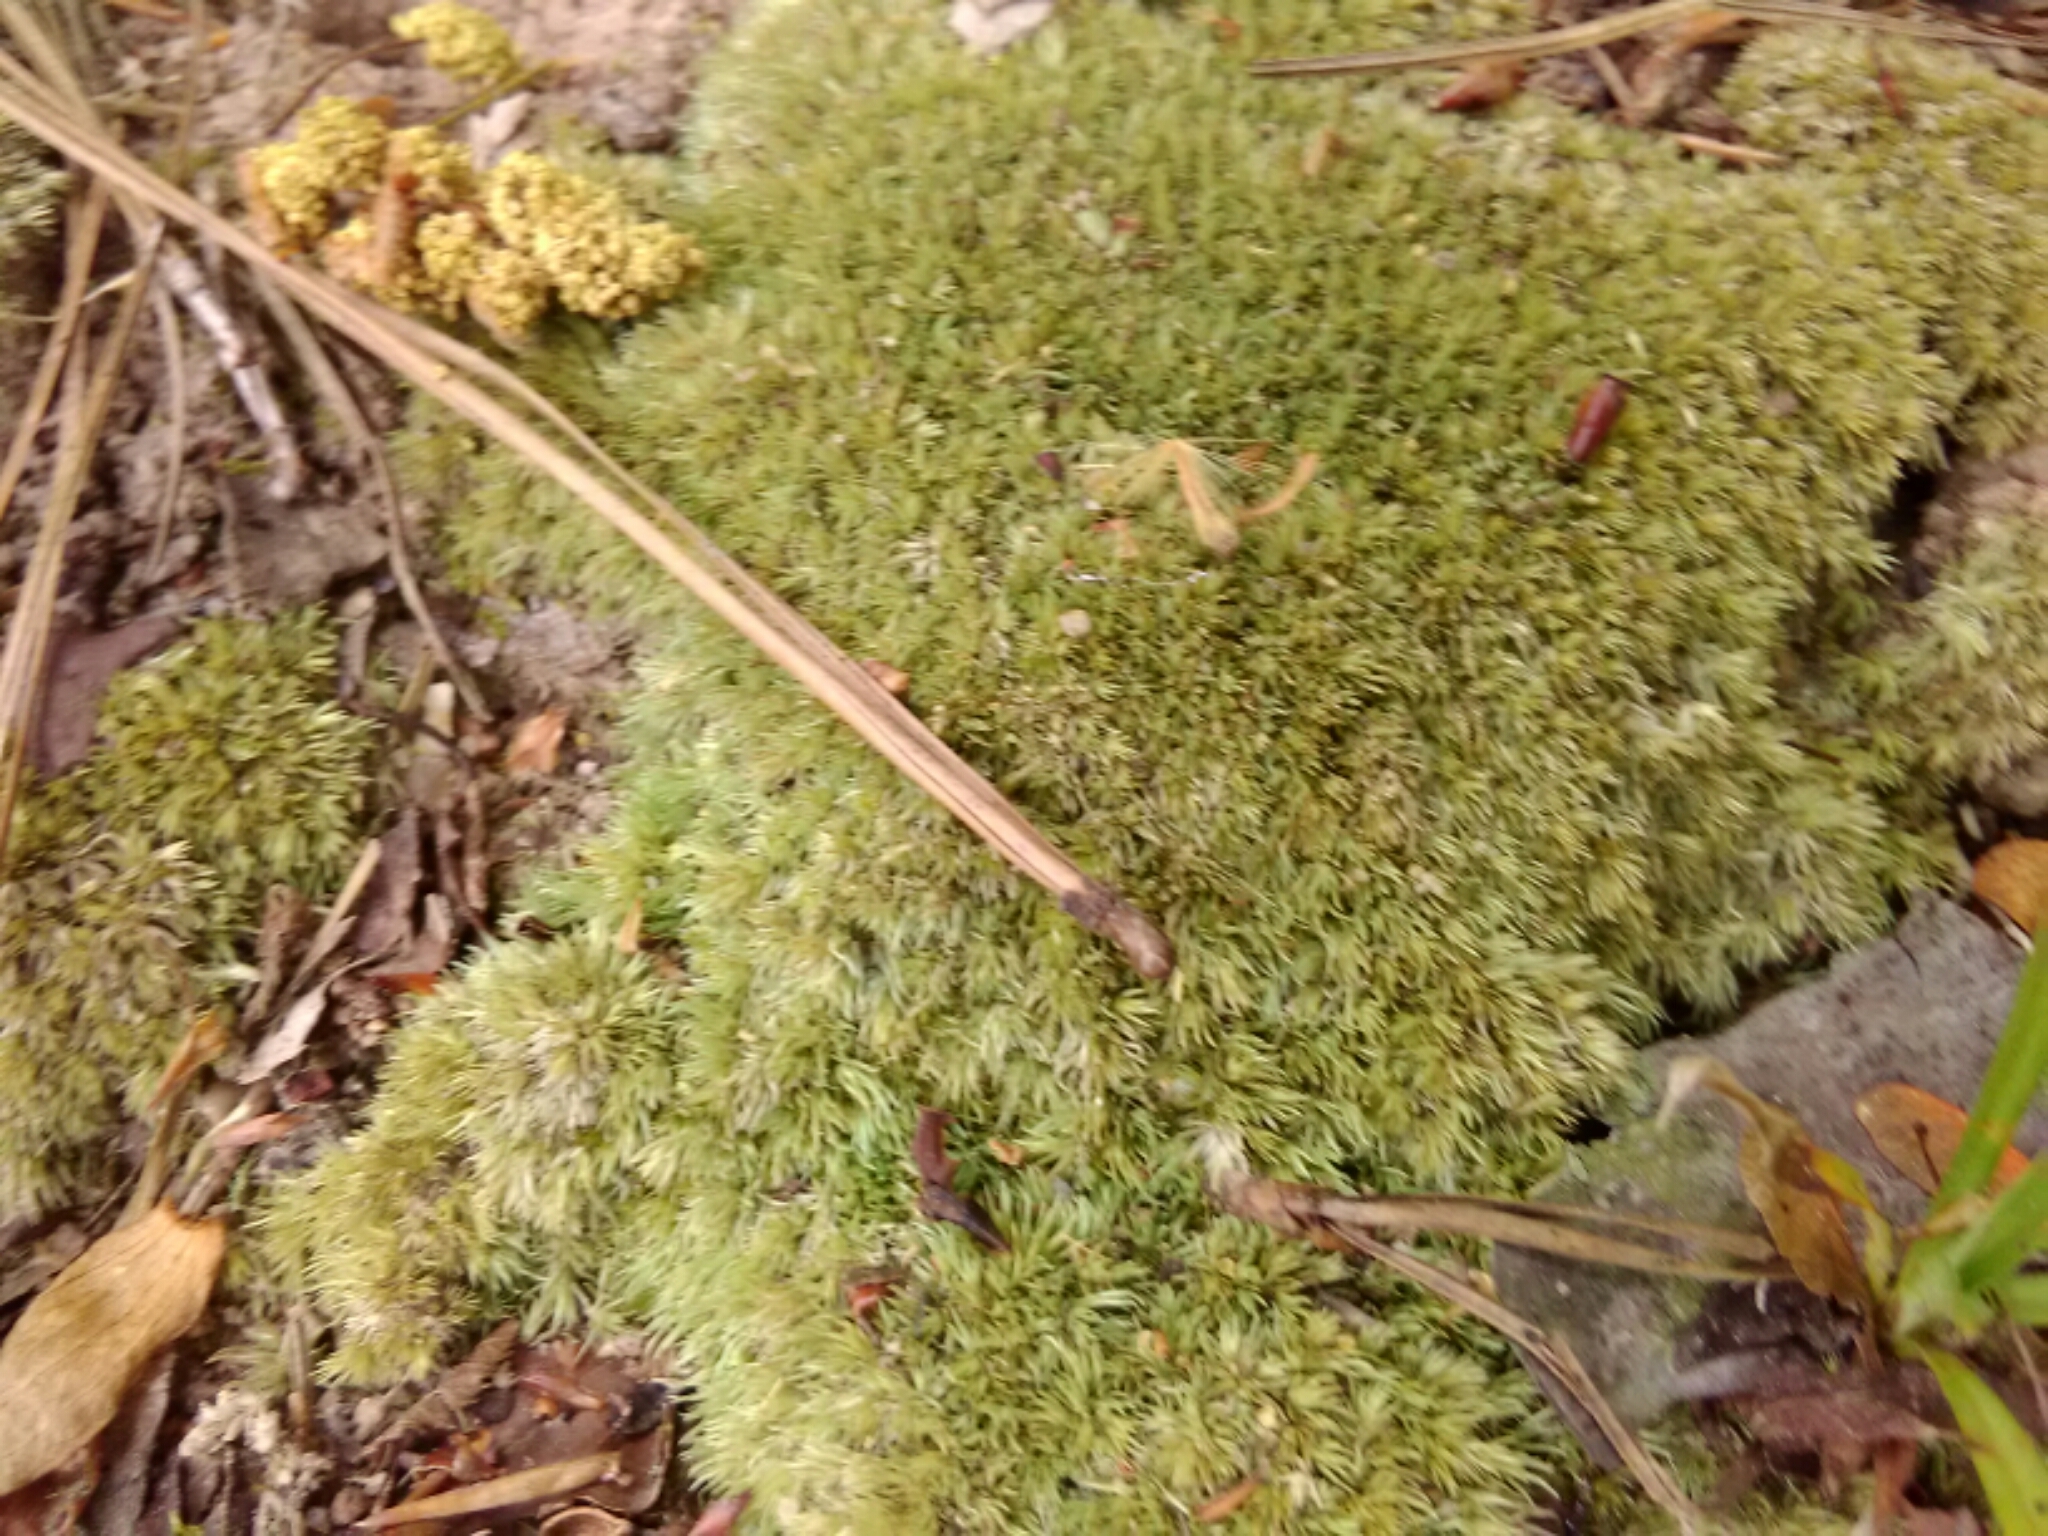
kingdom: Plantae
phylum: Bryophyta
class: Bryopsida
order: Dicranales
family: Leucobryaceae
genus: Leucobryum
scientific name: Leucobryum glaucum
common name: Large white-moss
